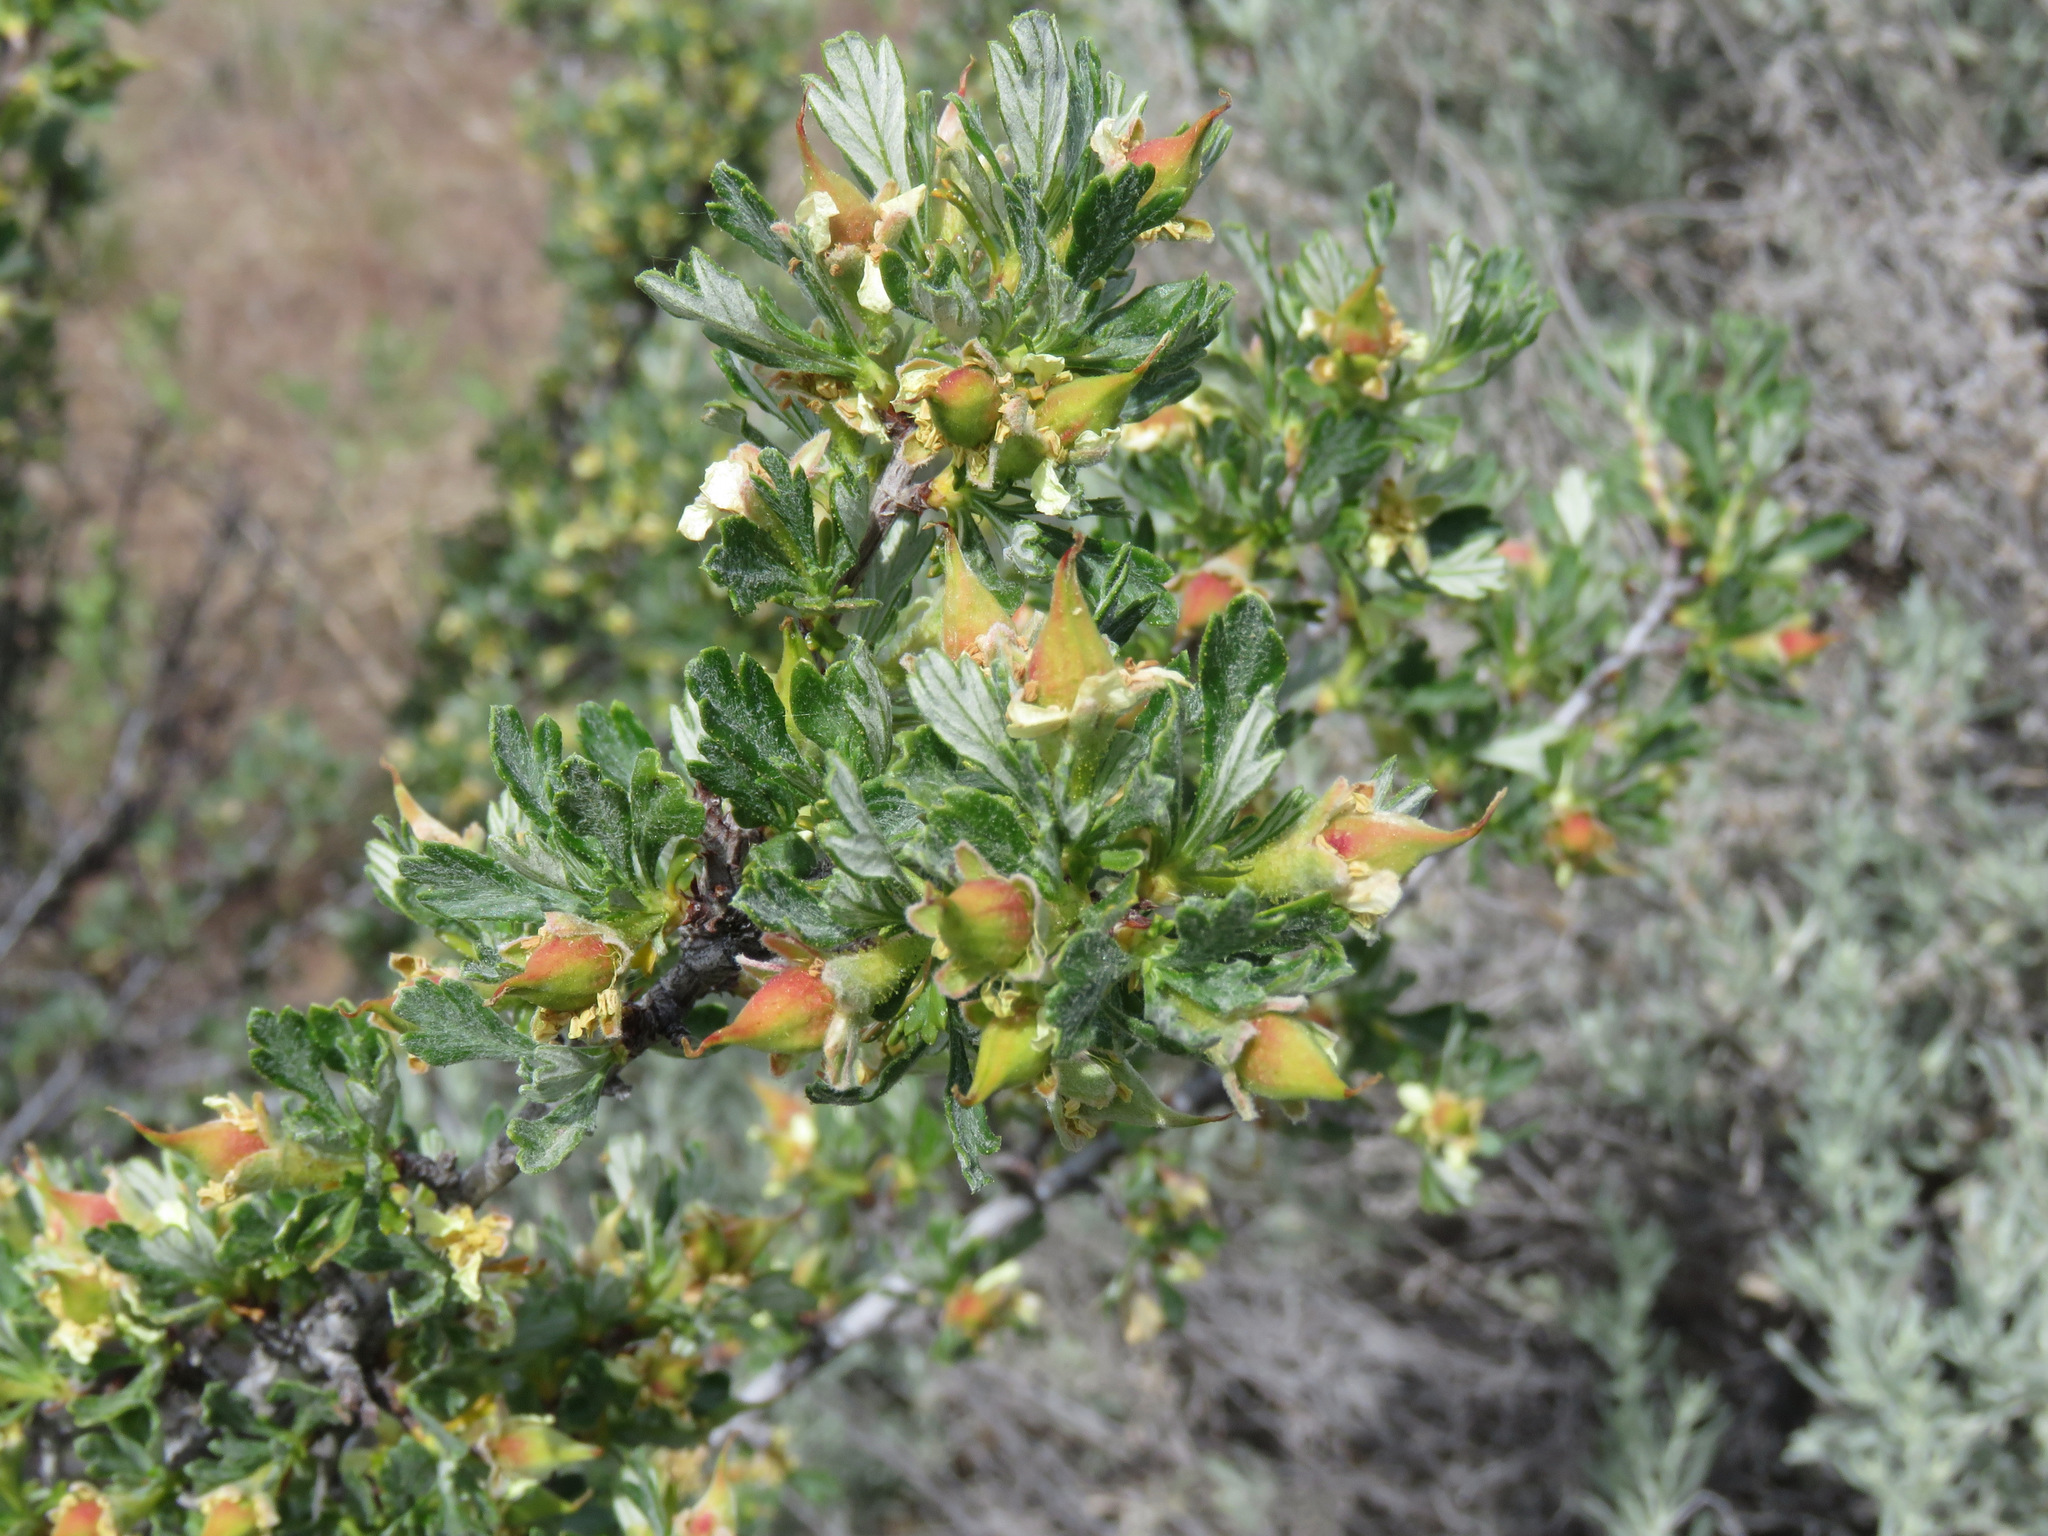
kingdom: Plantae
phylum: Tracheophyta
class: Magnoliopsida
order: Rosales
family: Rosaceae
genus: Purshia
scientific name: Purshia tridentata
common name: Antelope bitterbrush
